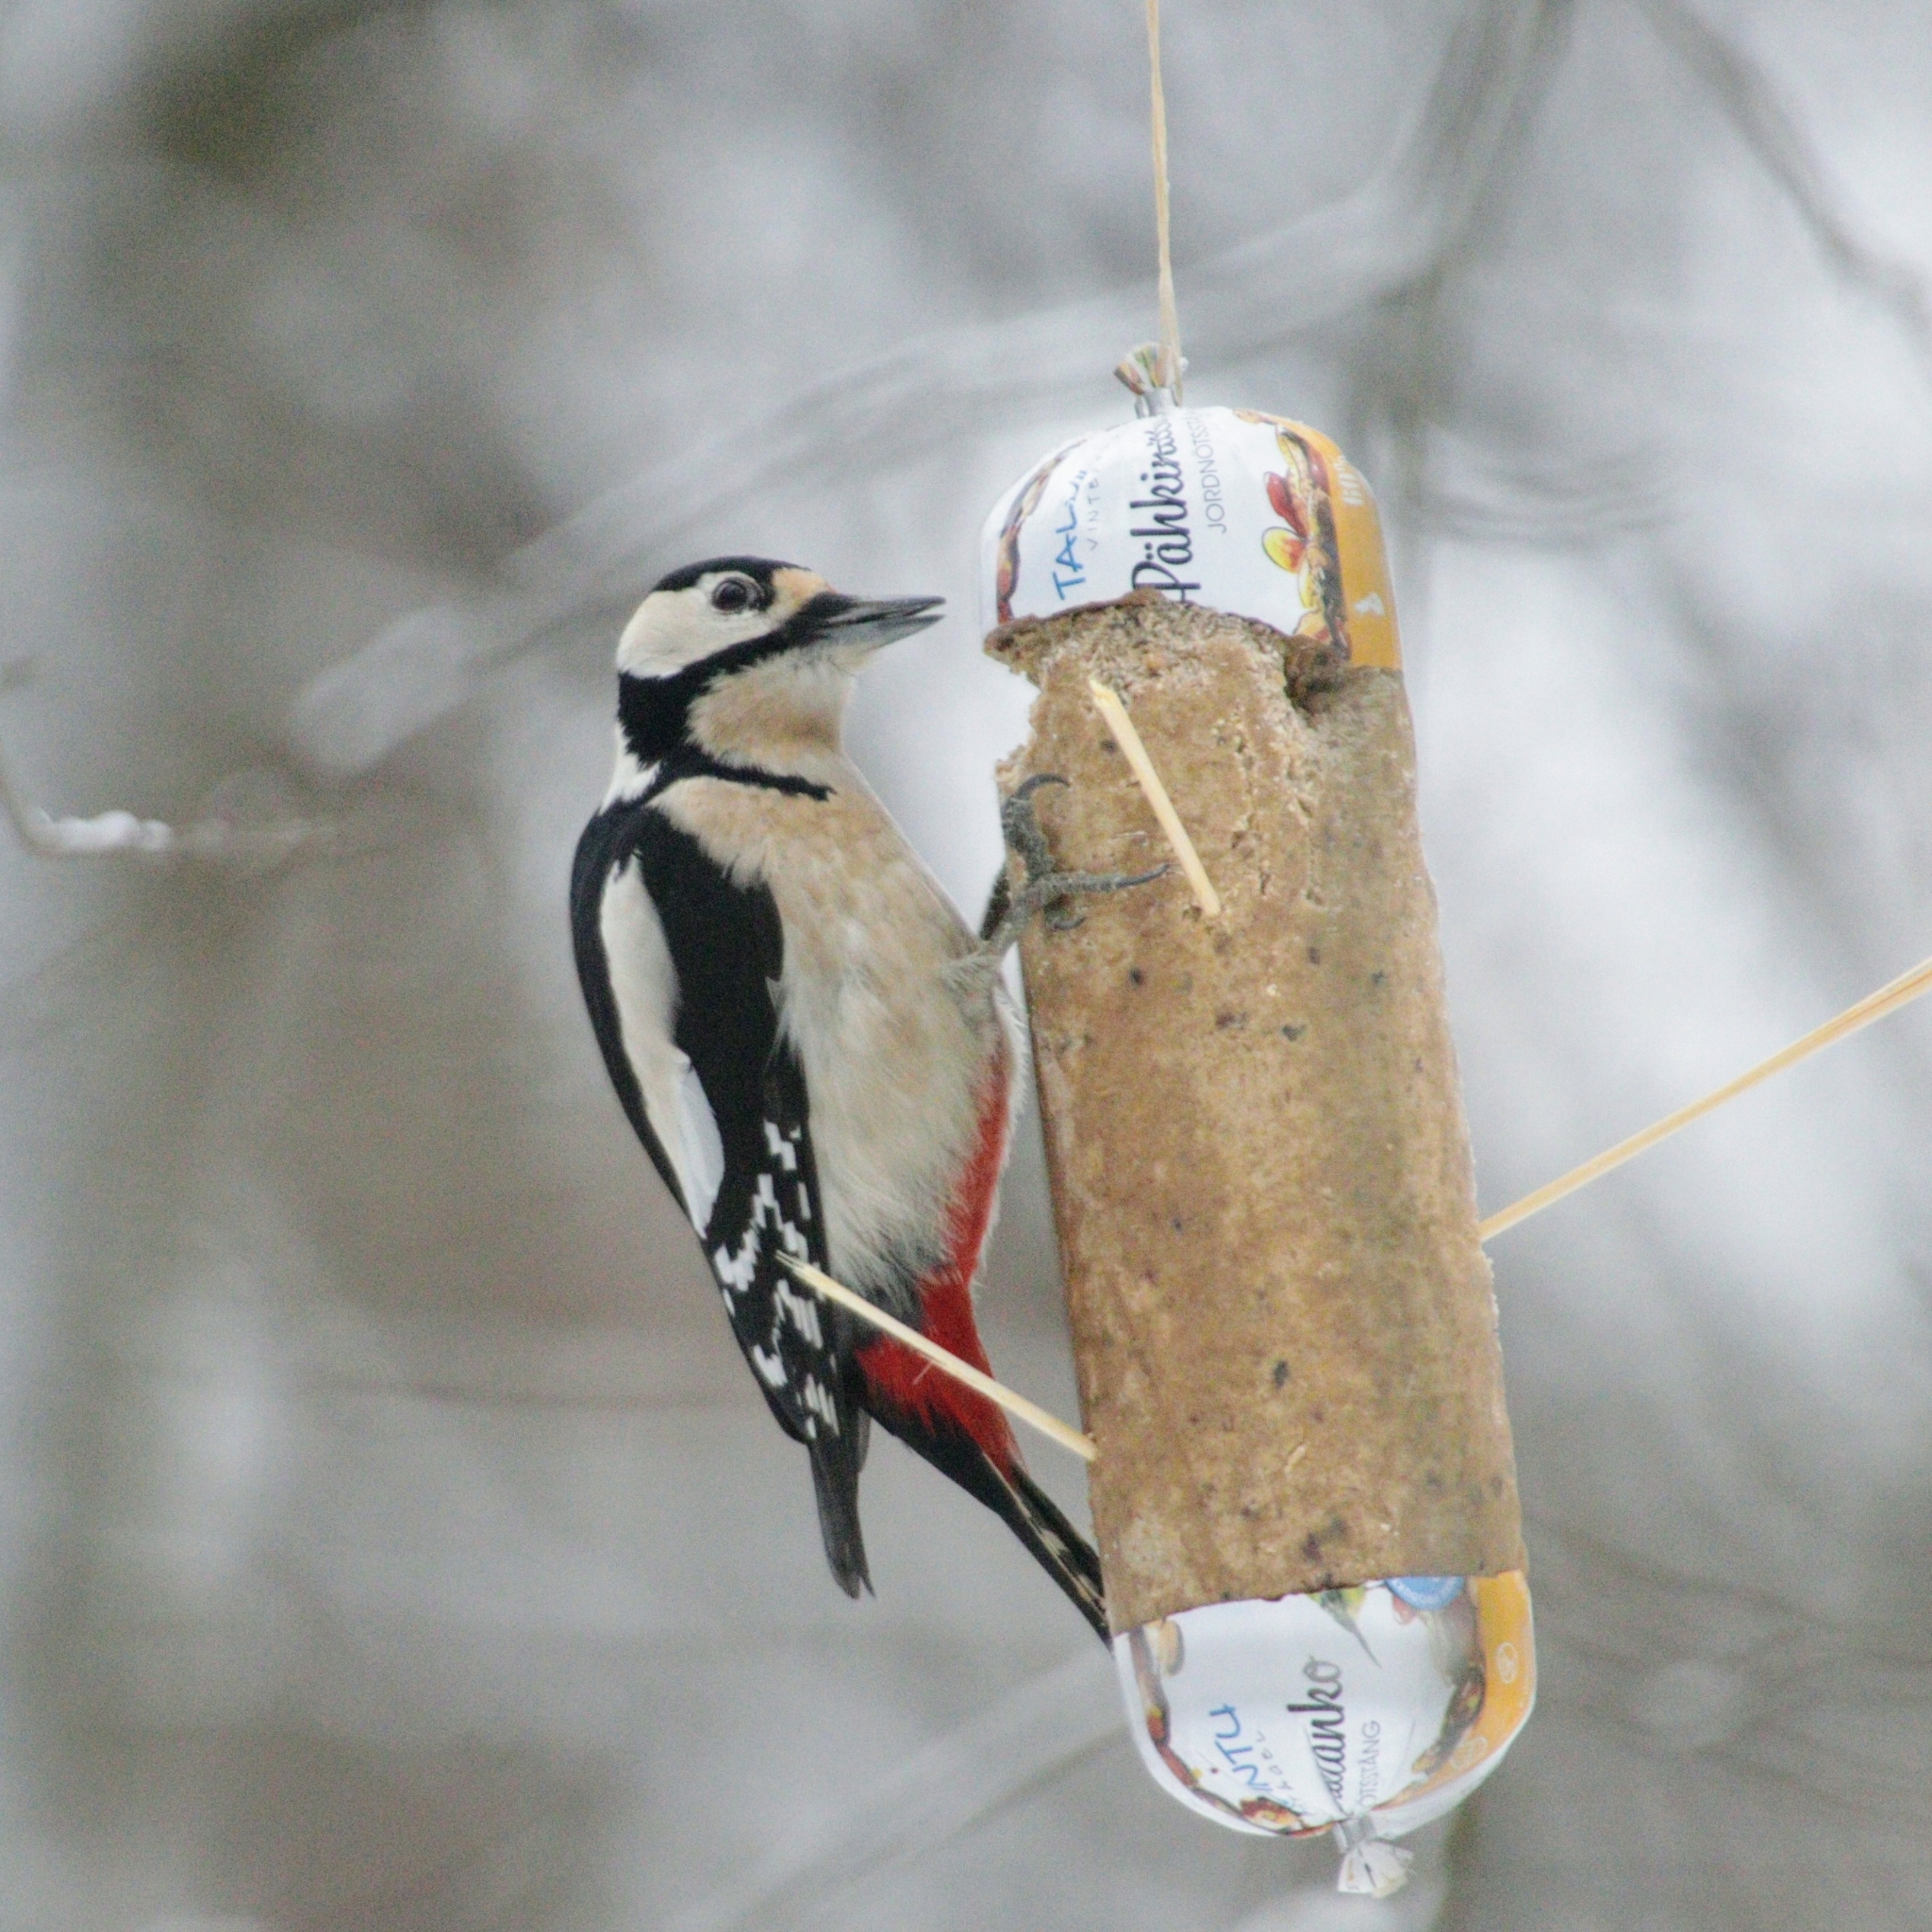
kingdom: Animalia
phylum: Chordata
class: Aves
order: Piciformes
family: Picidae
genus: Dendrocopos
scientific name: Dendrocopos major
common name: Great spotted woodpecker
